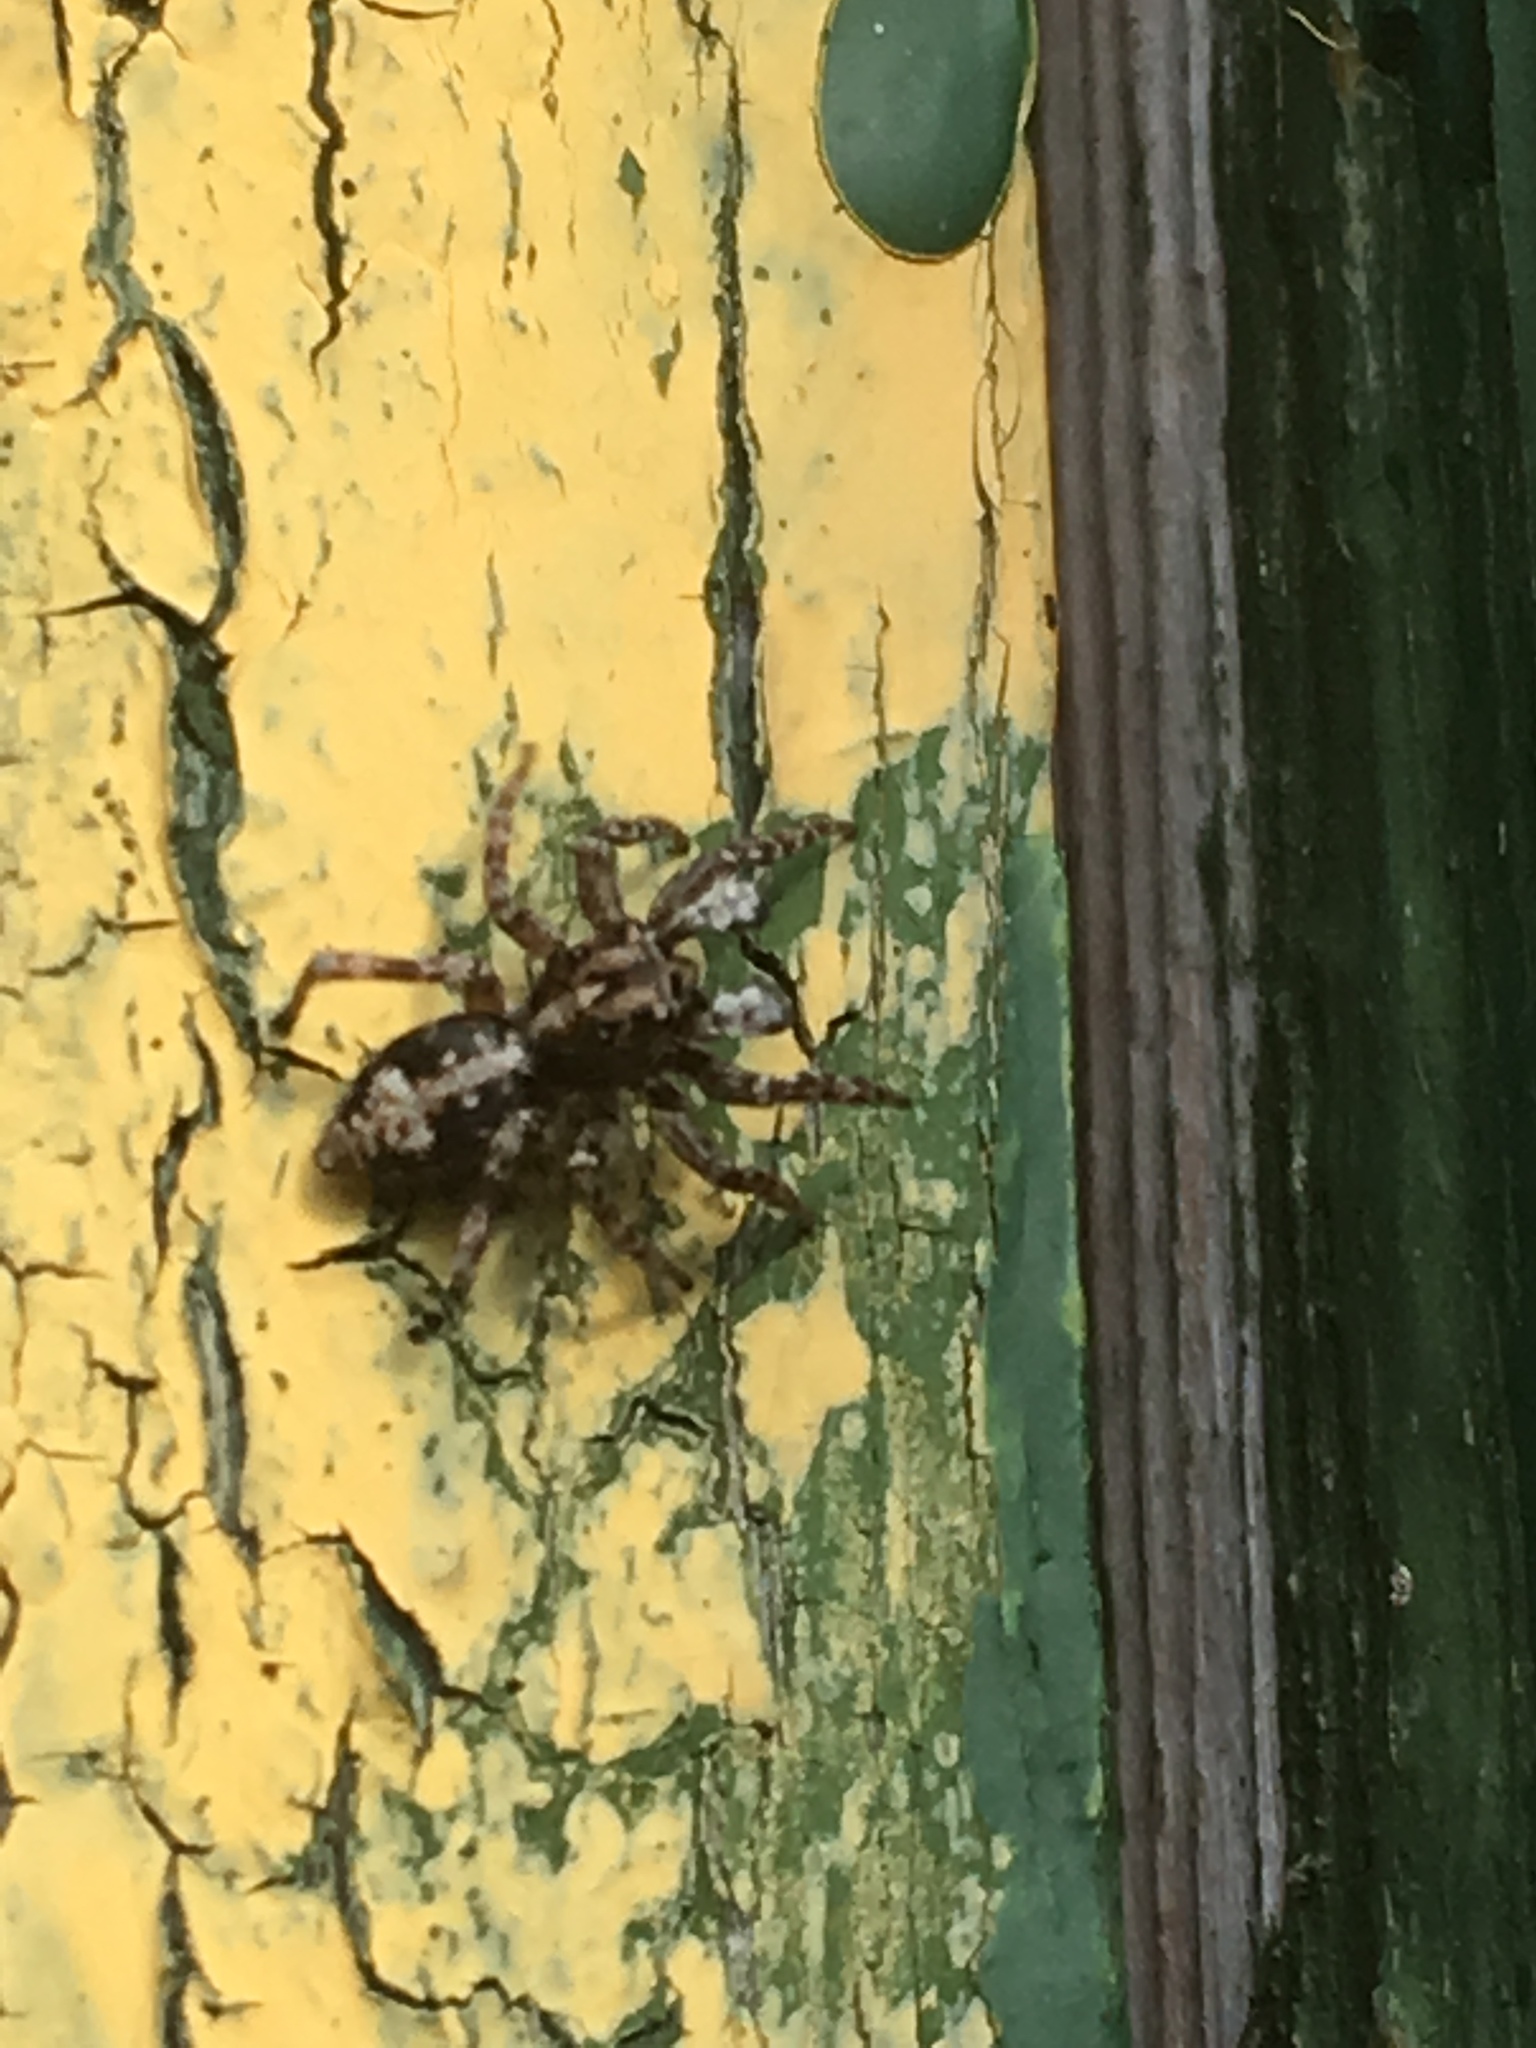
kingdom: Animalia
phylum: Arthropoda
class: Arachnida
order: Araneae
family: Salticidae
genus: Attulus
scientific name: Attulus terebratus
